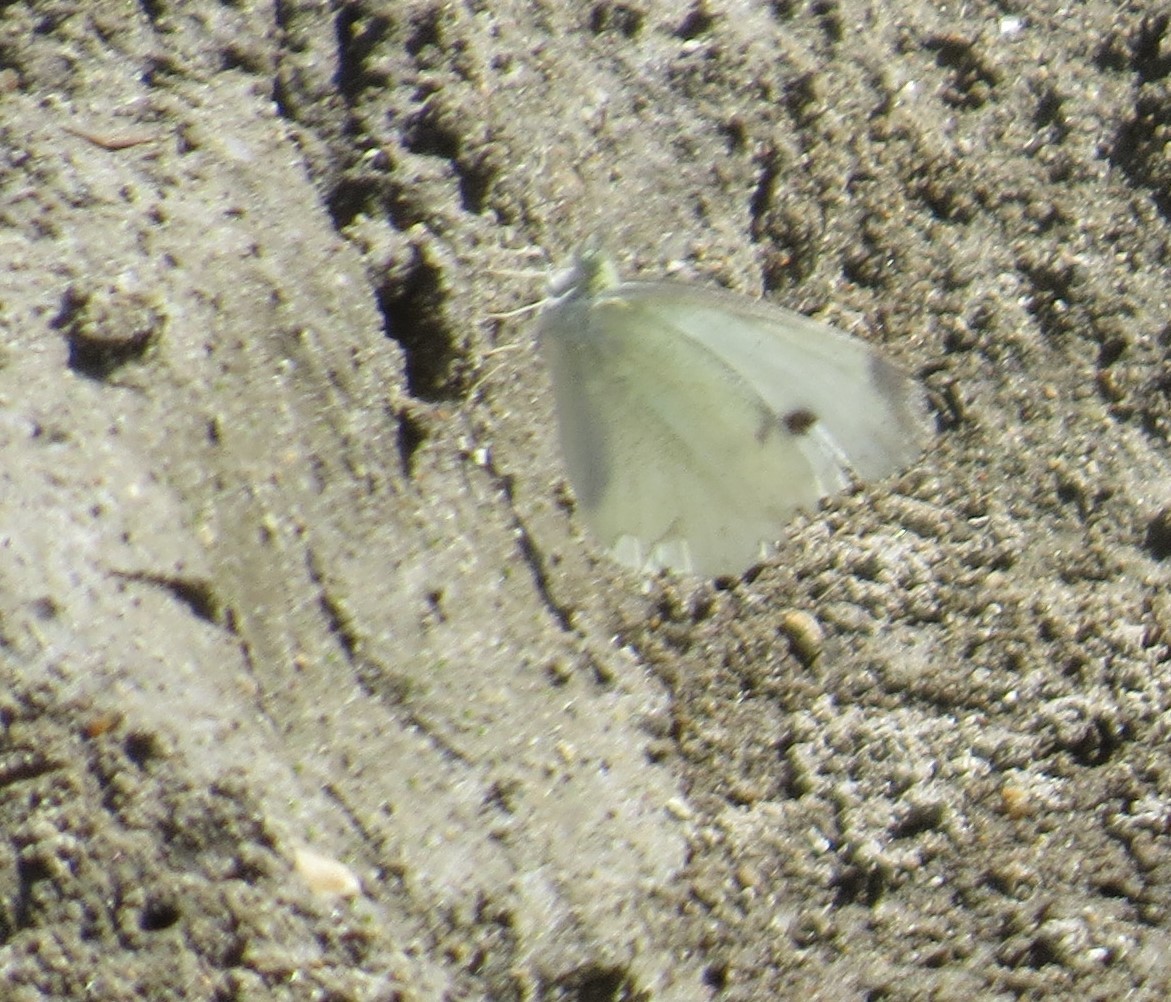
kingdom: Animalia
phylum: Arthropoda
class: Insecta
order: Lepidoptera
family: Pieridae
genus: Pieris
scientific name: Pieris rapae
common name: Small white
